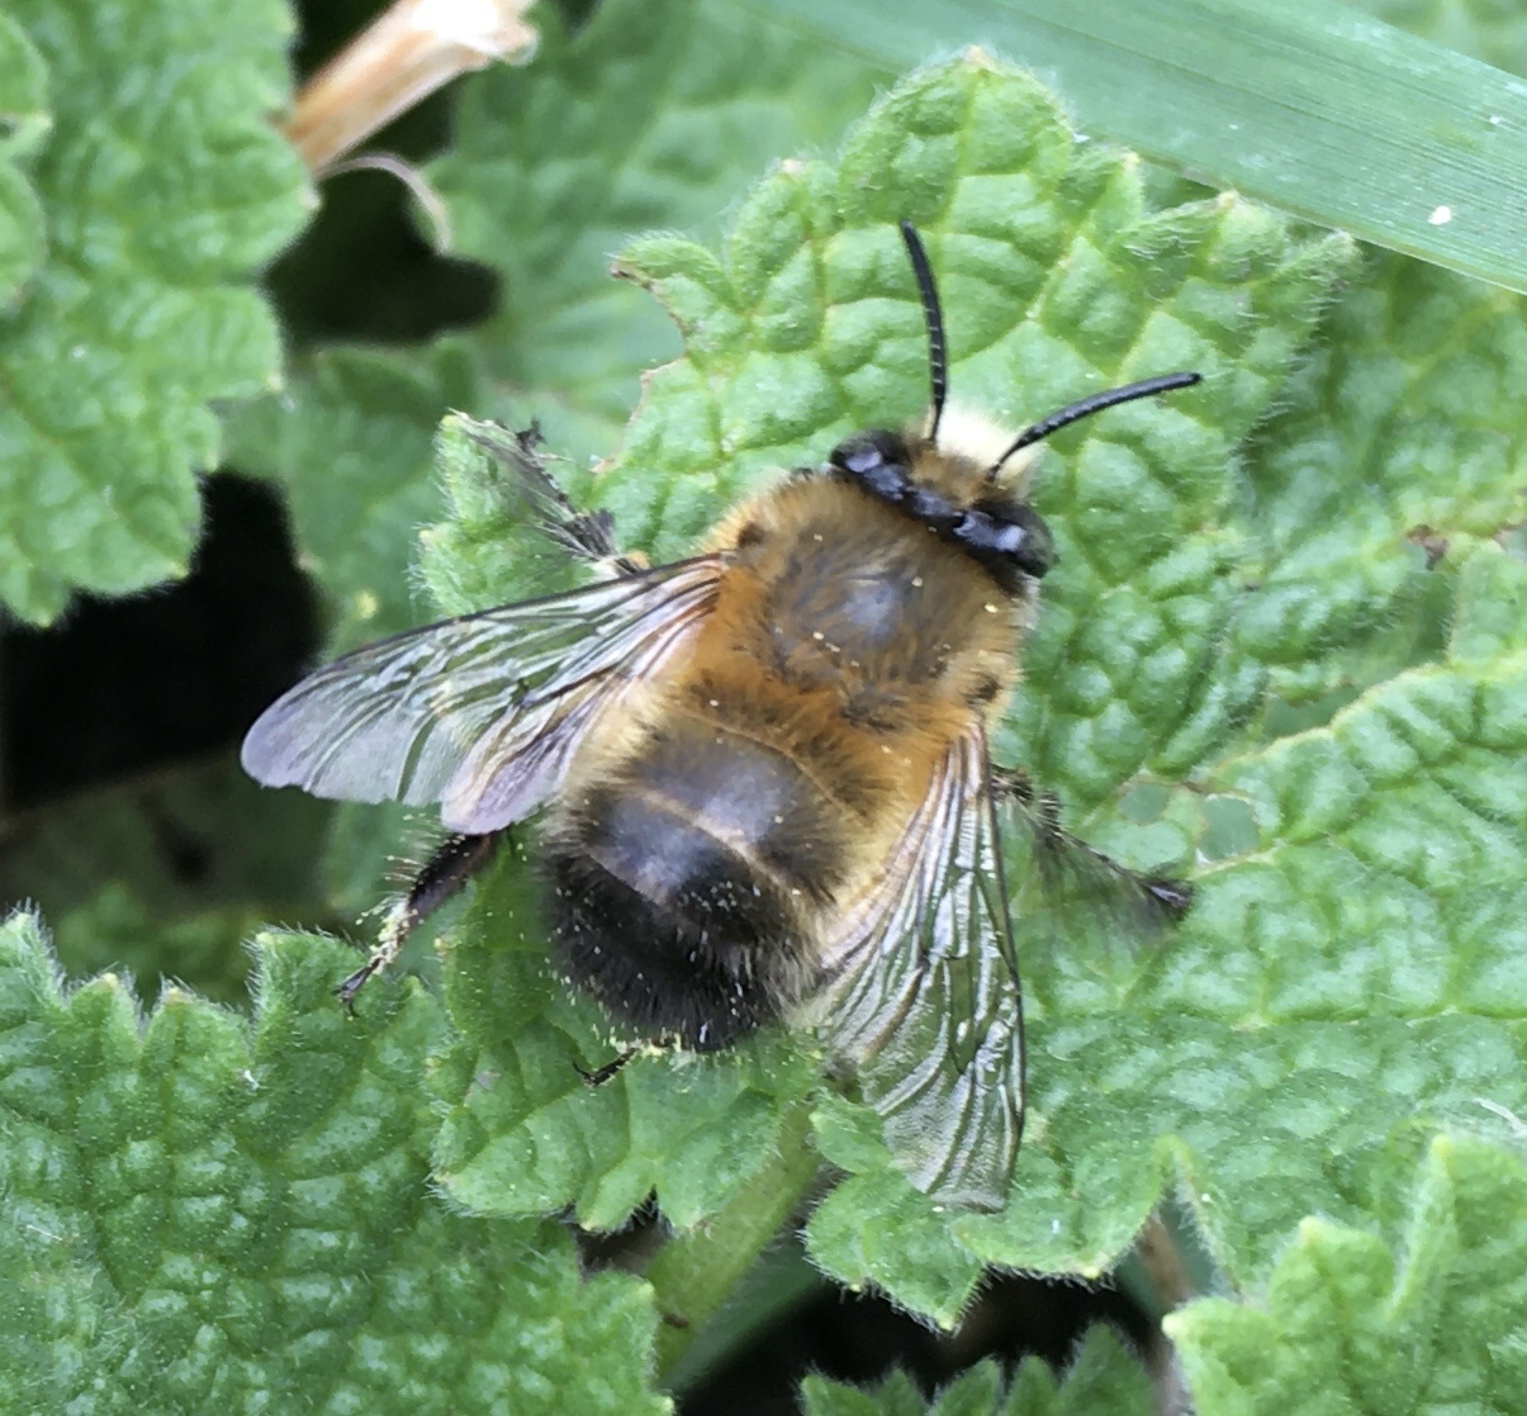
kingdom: Animalia
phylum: Arthropoda
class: Insecta
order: Hymenoptera
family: Apidae
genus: Anthophora
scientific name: Anthophora plumipes
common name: Hairy-footed flower bee
